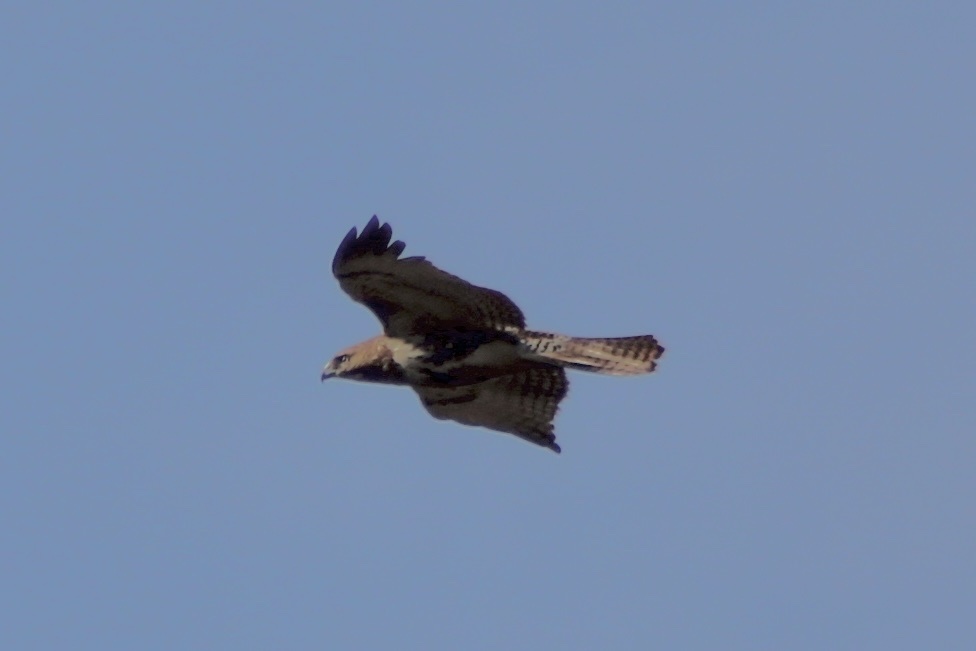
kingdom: Animalia
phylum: Chordata
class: Aves
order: Accipitriformes
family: Accipitridae
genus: Buteo
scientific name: Buteo jamaicensis
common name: Red-tailed hawk
